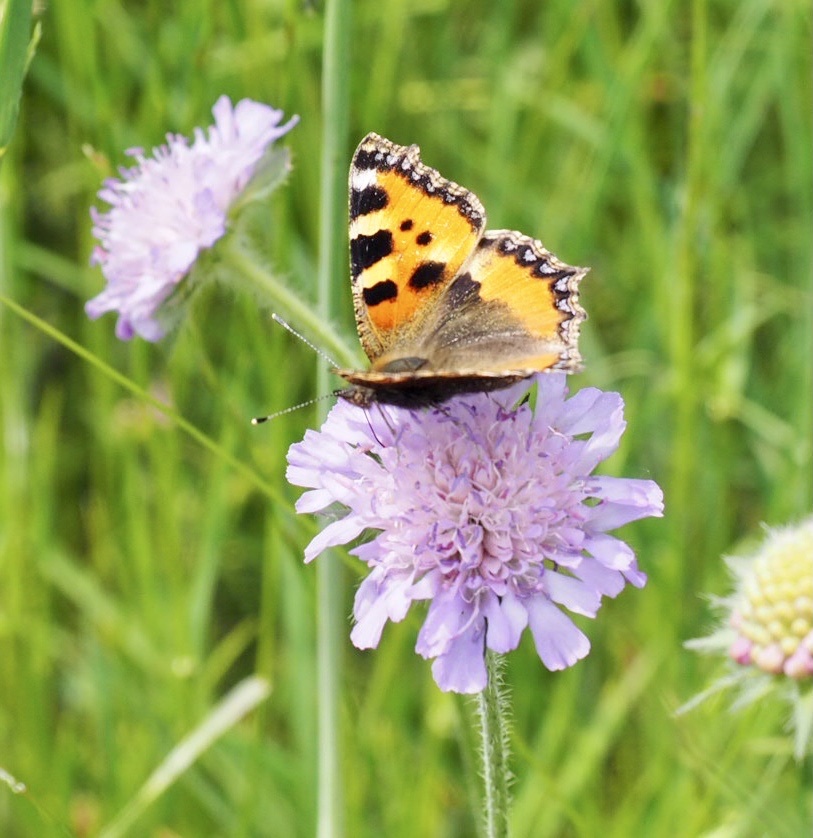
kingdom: Animalia
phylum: Arthropoda
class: Insecta
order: Lepidoptera
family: Nymphalidae
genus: Aglais
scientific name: Aglais urticae
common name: Small tortoiseshell
